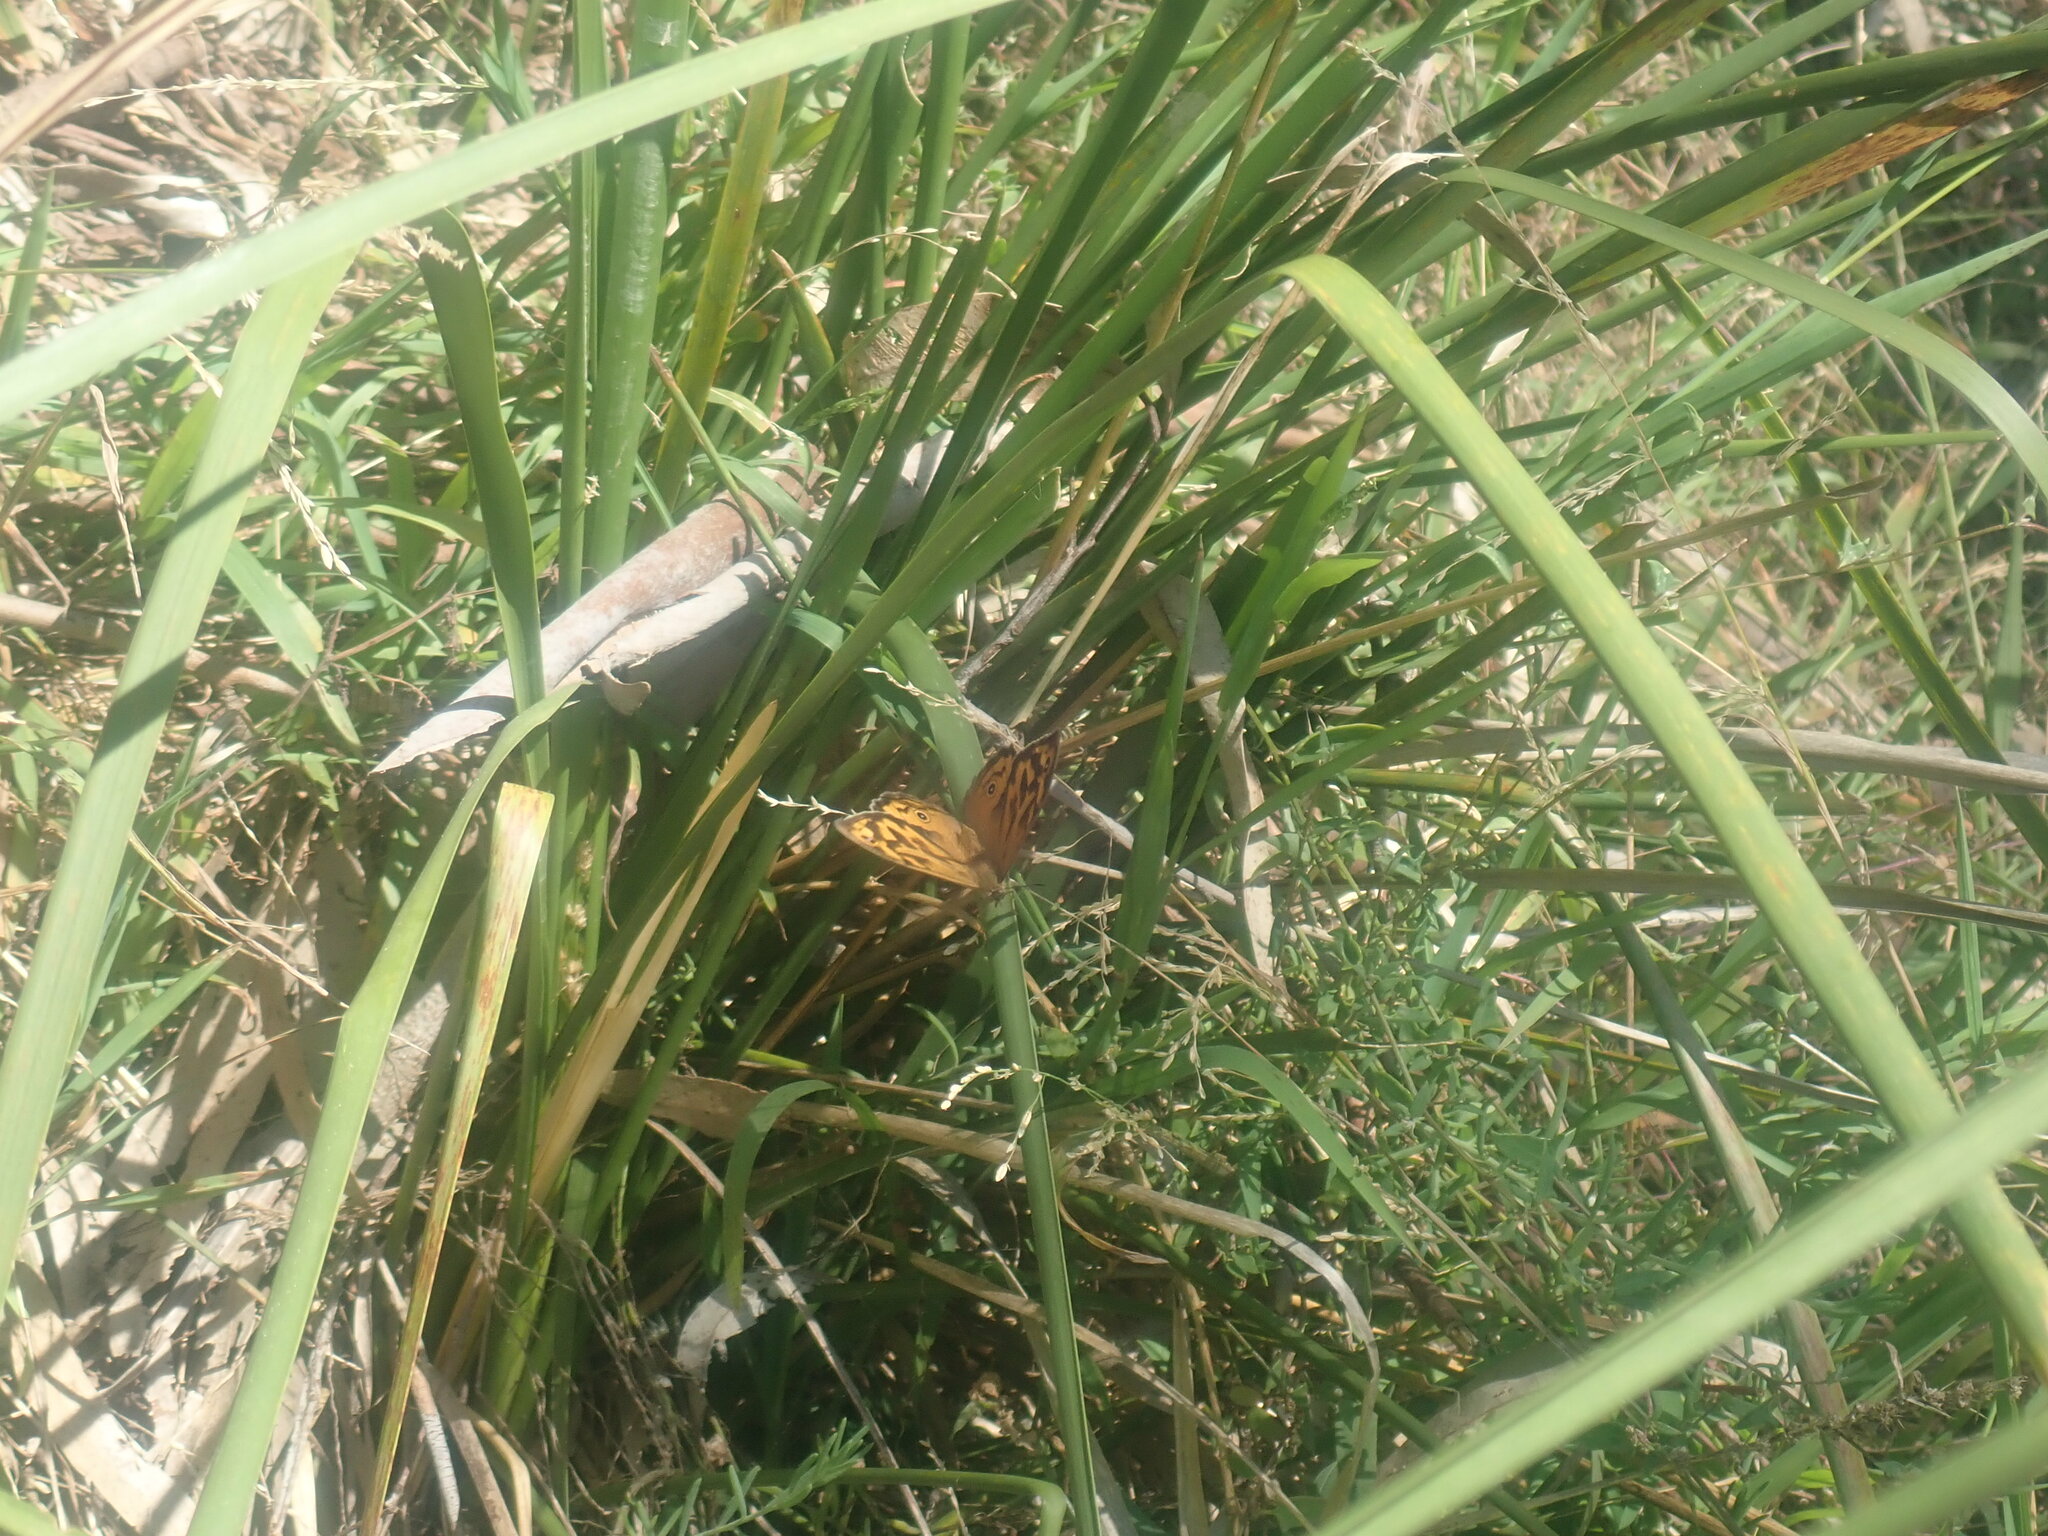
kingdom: Animalia
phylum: Arthropoda
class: Insecta
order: Lepidoptera
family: Nymphalidae
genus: Heteronympha
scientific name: Heteronympha merope
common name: Common brown
